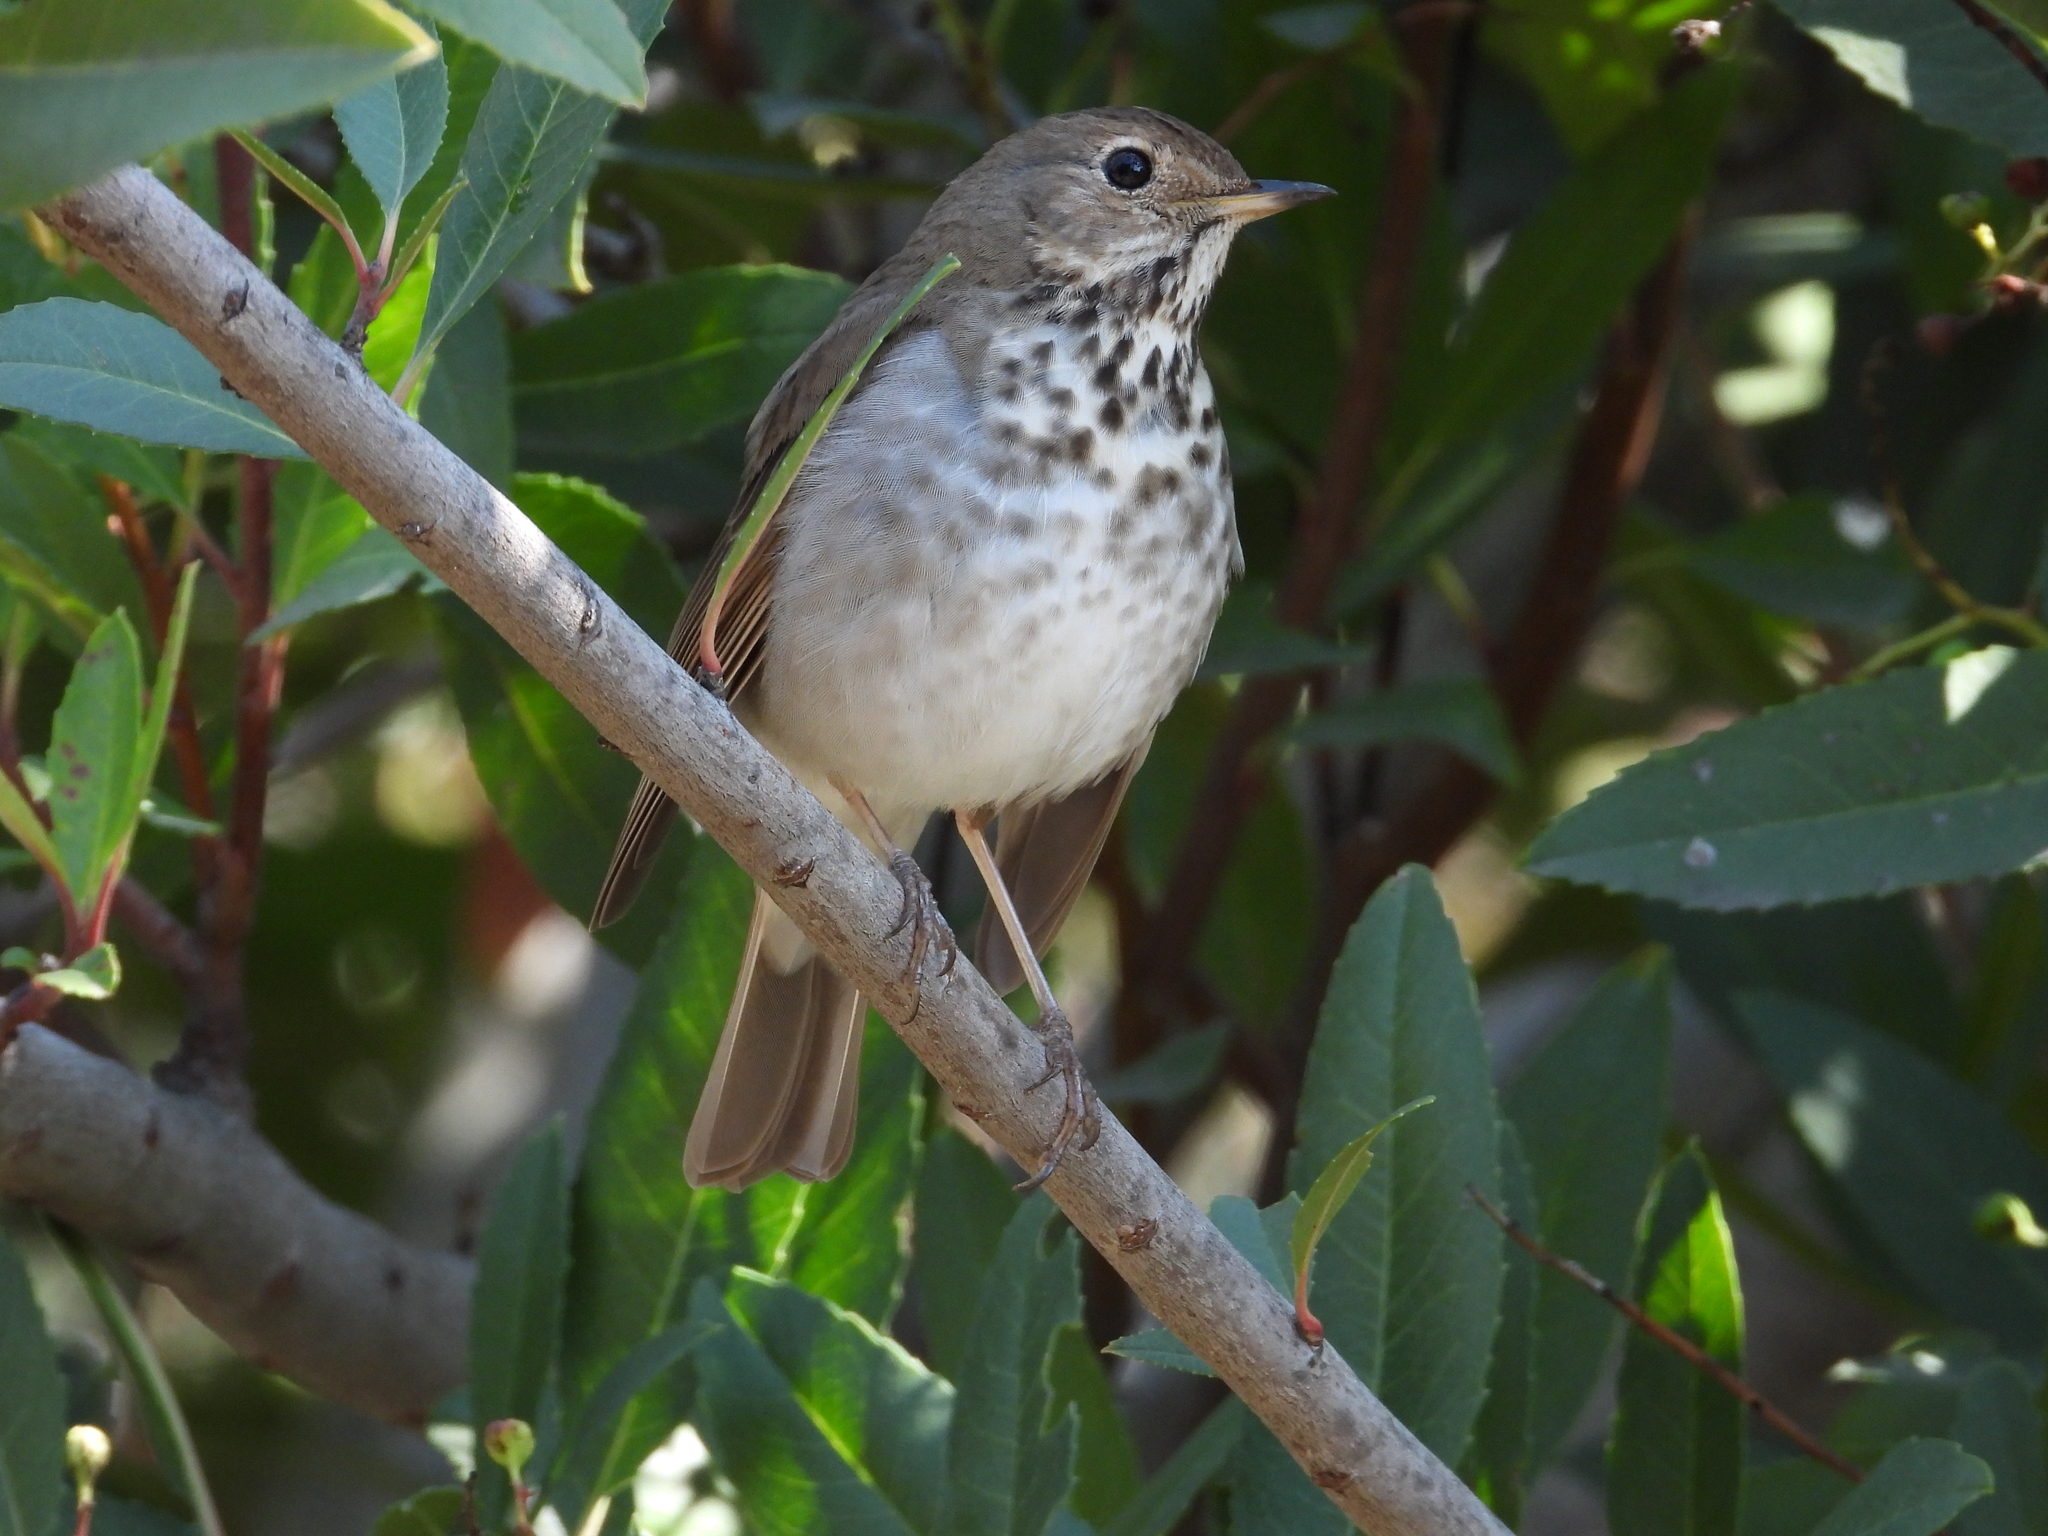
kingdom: Animalia
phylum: Chordata
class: Aves
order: Passeriformes
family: Turdidae
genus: Catharus
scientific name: Catharus guttatus
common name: Hermit thrush
